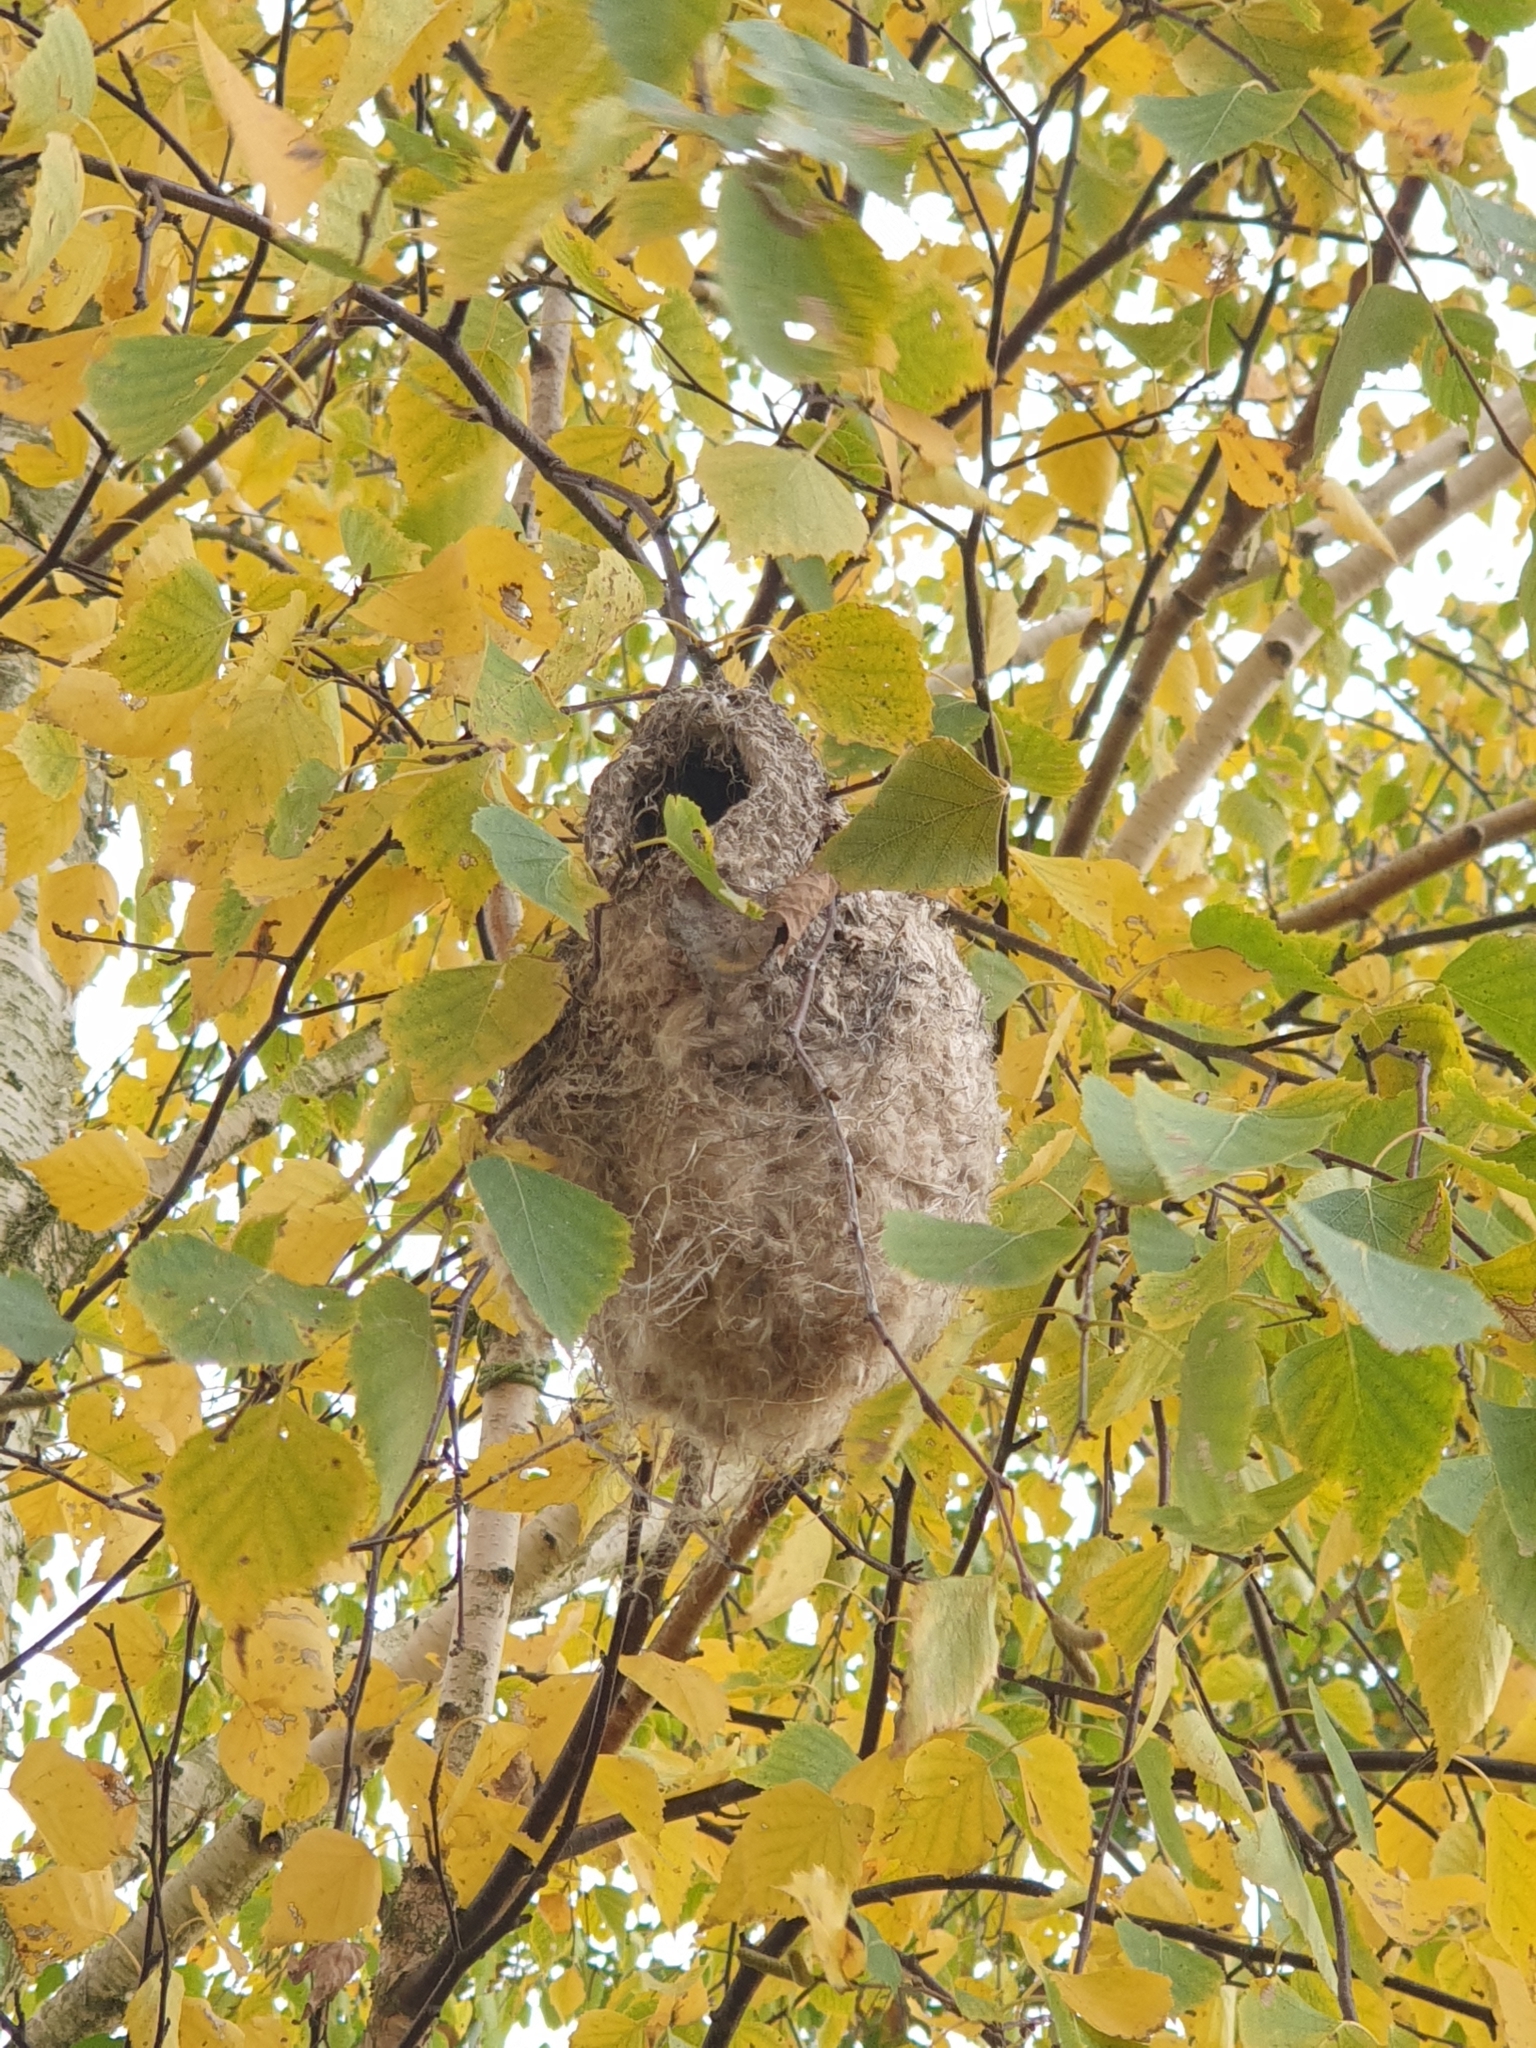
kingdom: Animalia
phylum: Chordata
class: Aves
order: Passeriformes
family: Remizidae
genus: Remiz
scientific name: Remiz pendulinus
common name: Eurasian penduline tit
